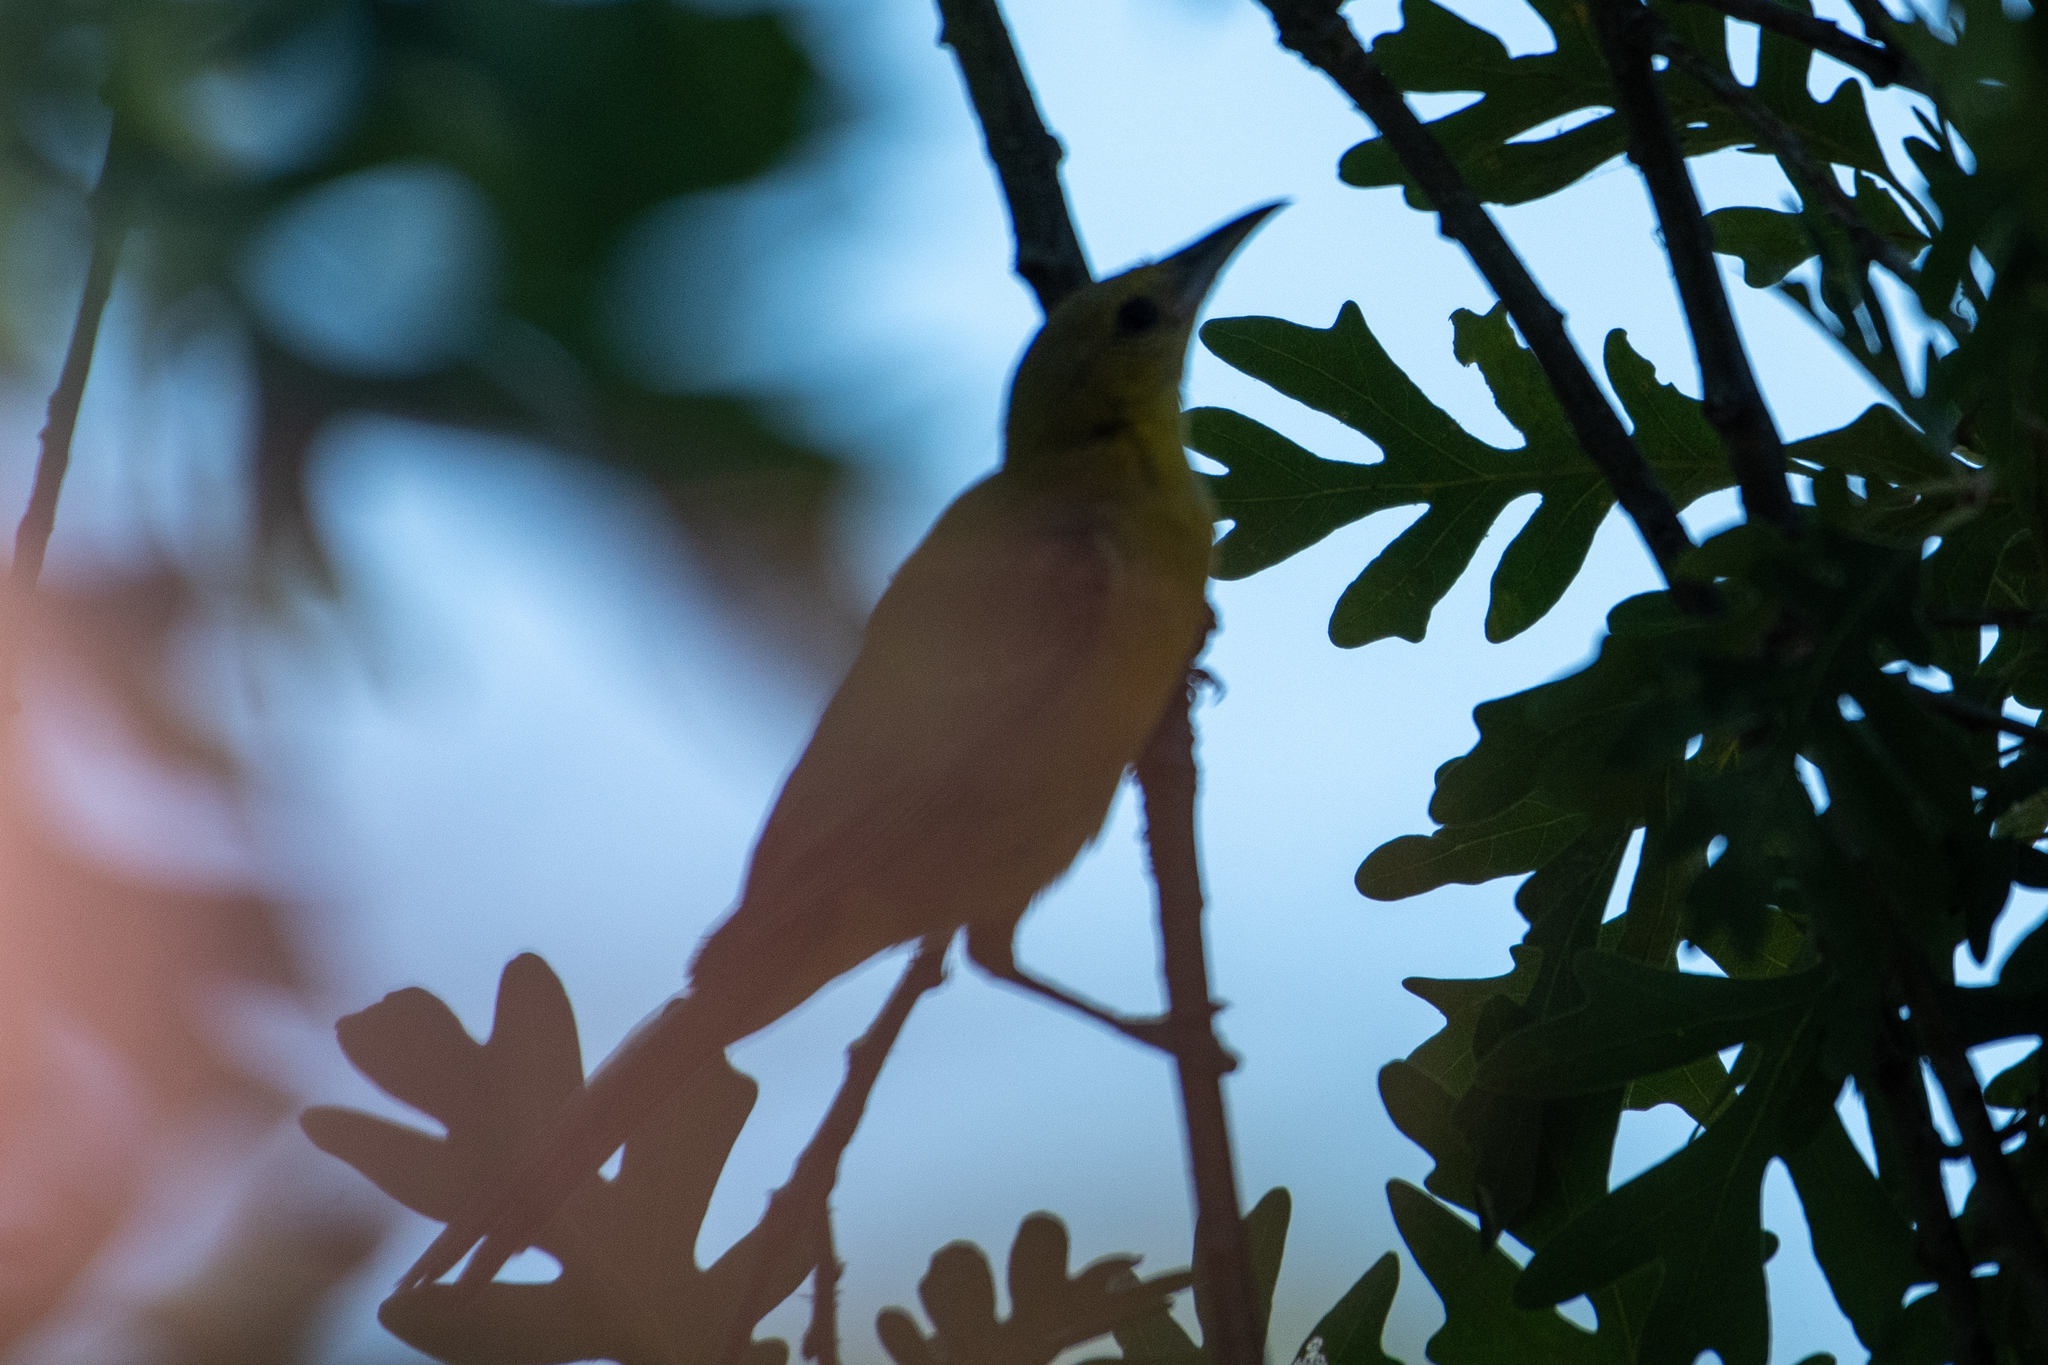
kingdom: Animalia
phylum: Chordata
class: Aves
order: Passeriformes
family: Icteridae
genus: Icterus
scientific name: Icterus cucullatus
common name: Hooded oriole
